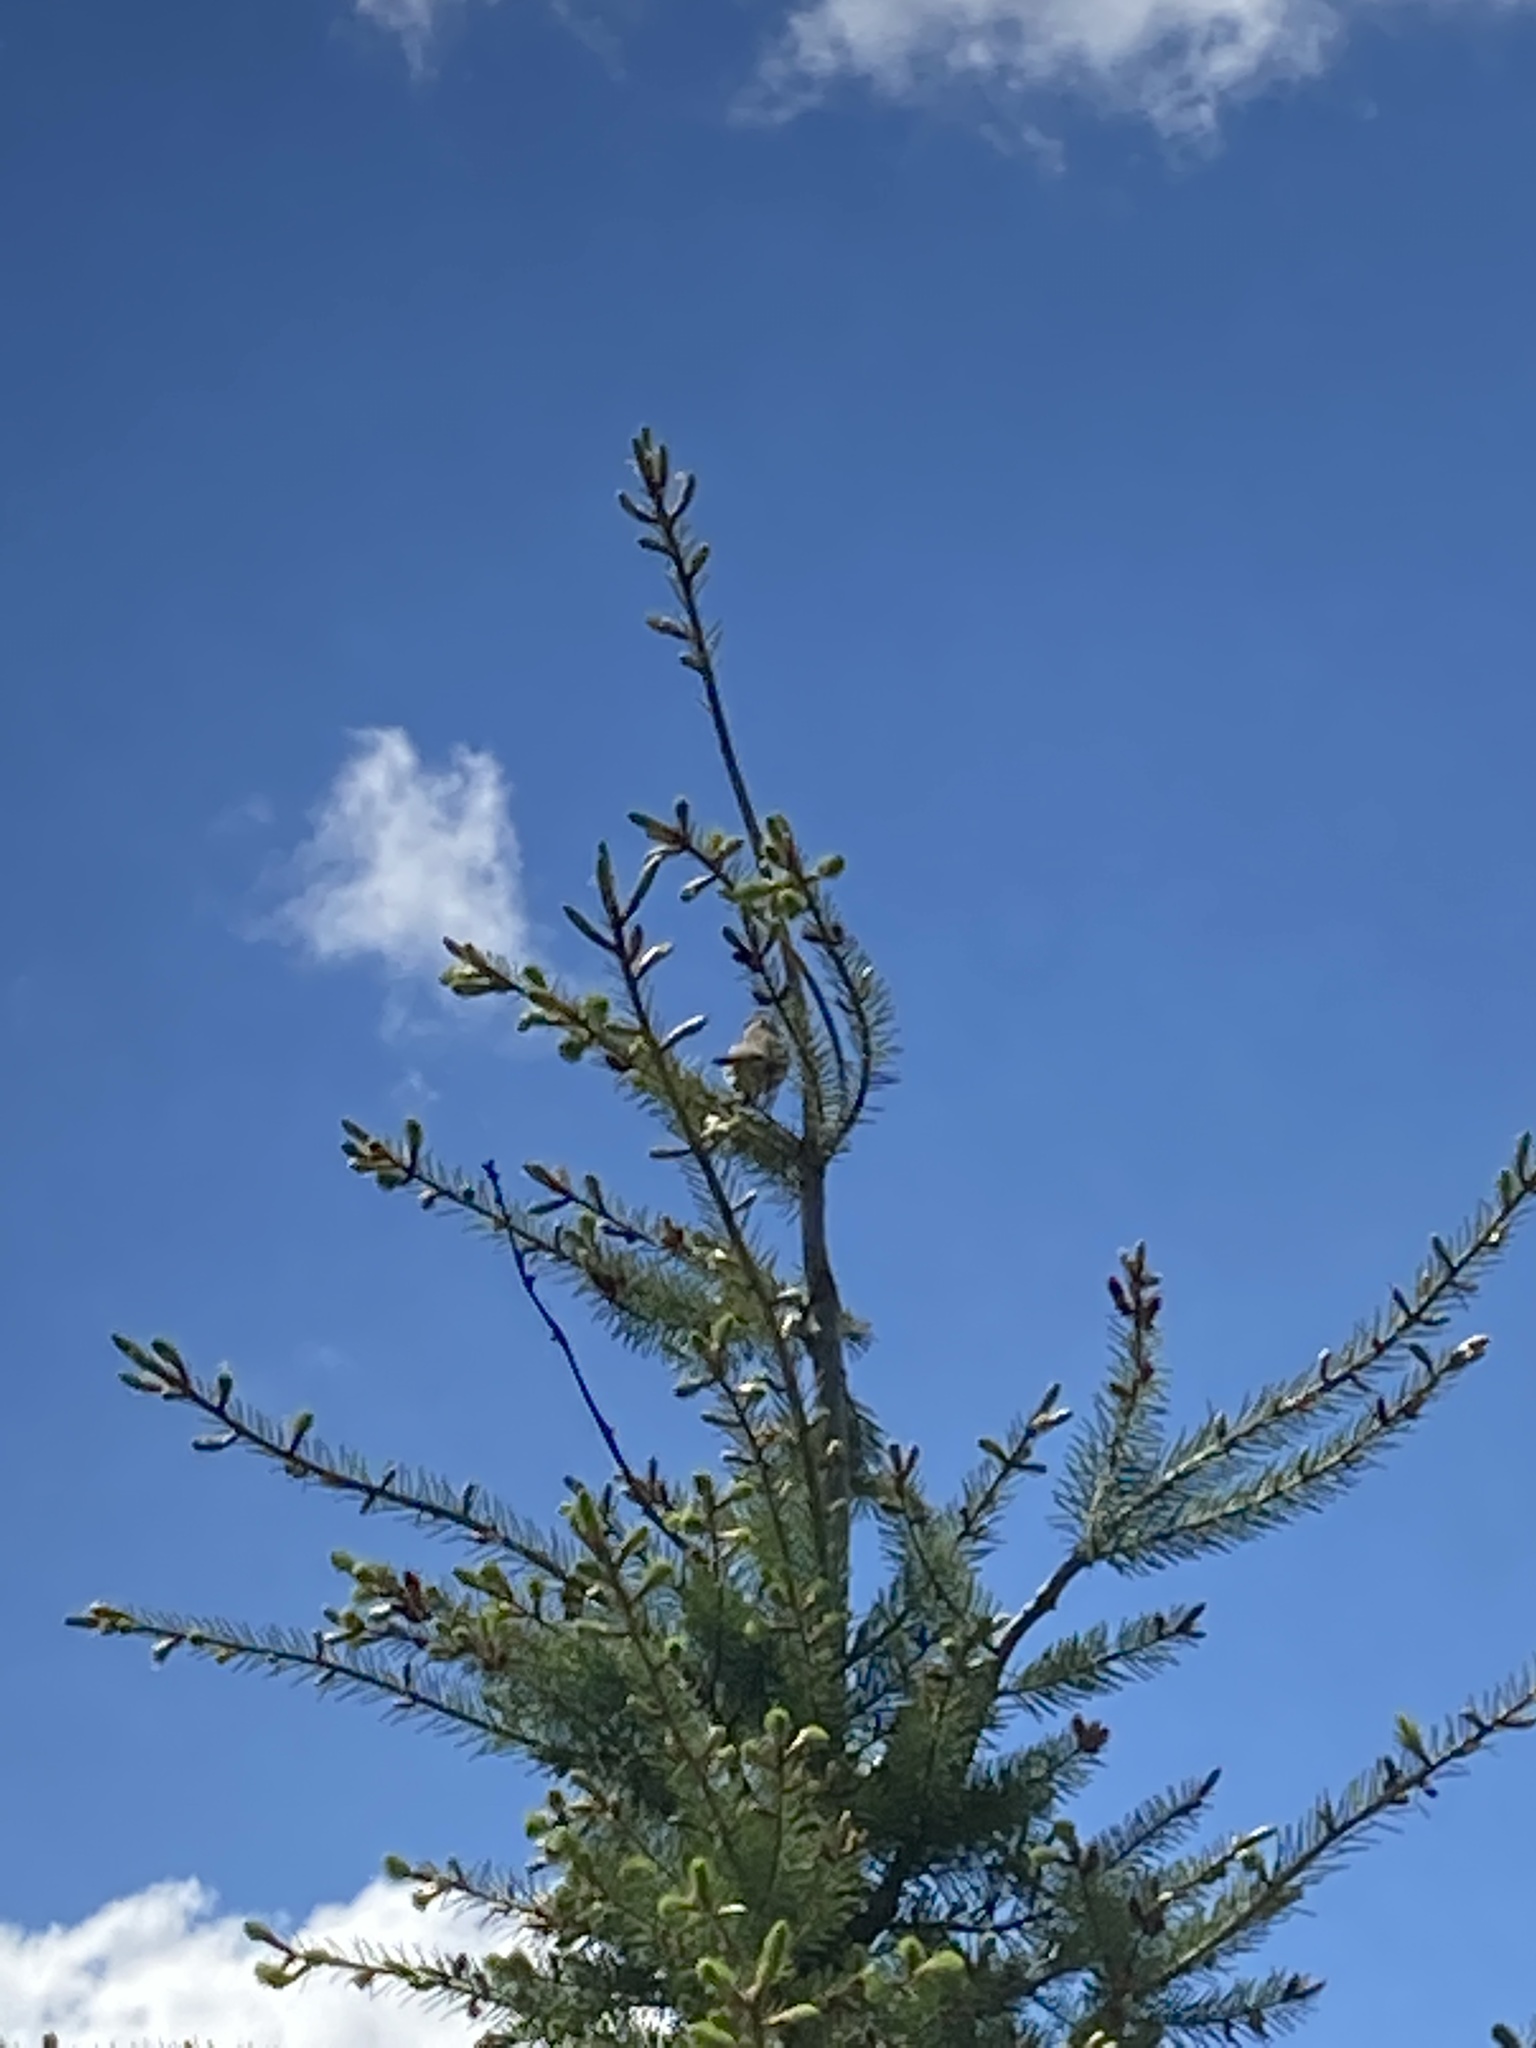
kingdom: Animalia
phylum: Chordata
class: Aves
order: Passeriformes
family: Passerellidae
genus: Zonotrichia
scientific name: Zonotrichia leucophrys
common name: White-crowned sparrow
